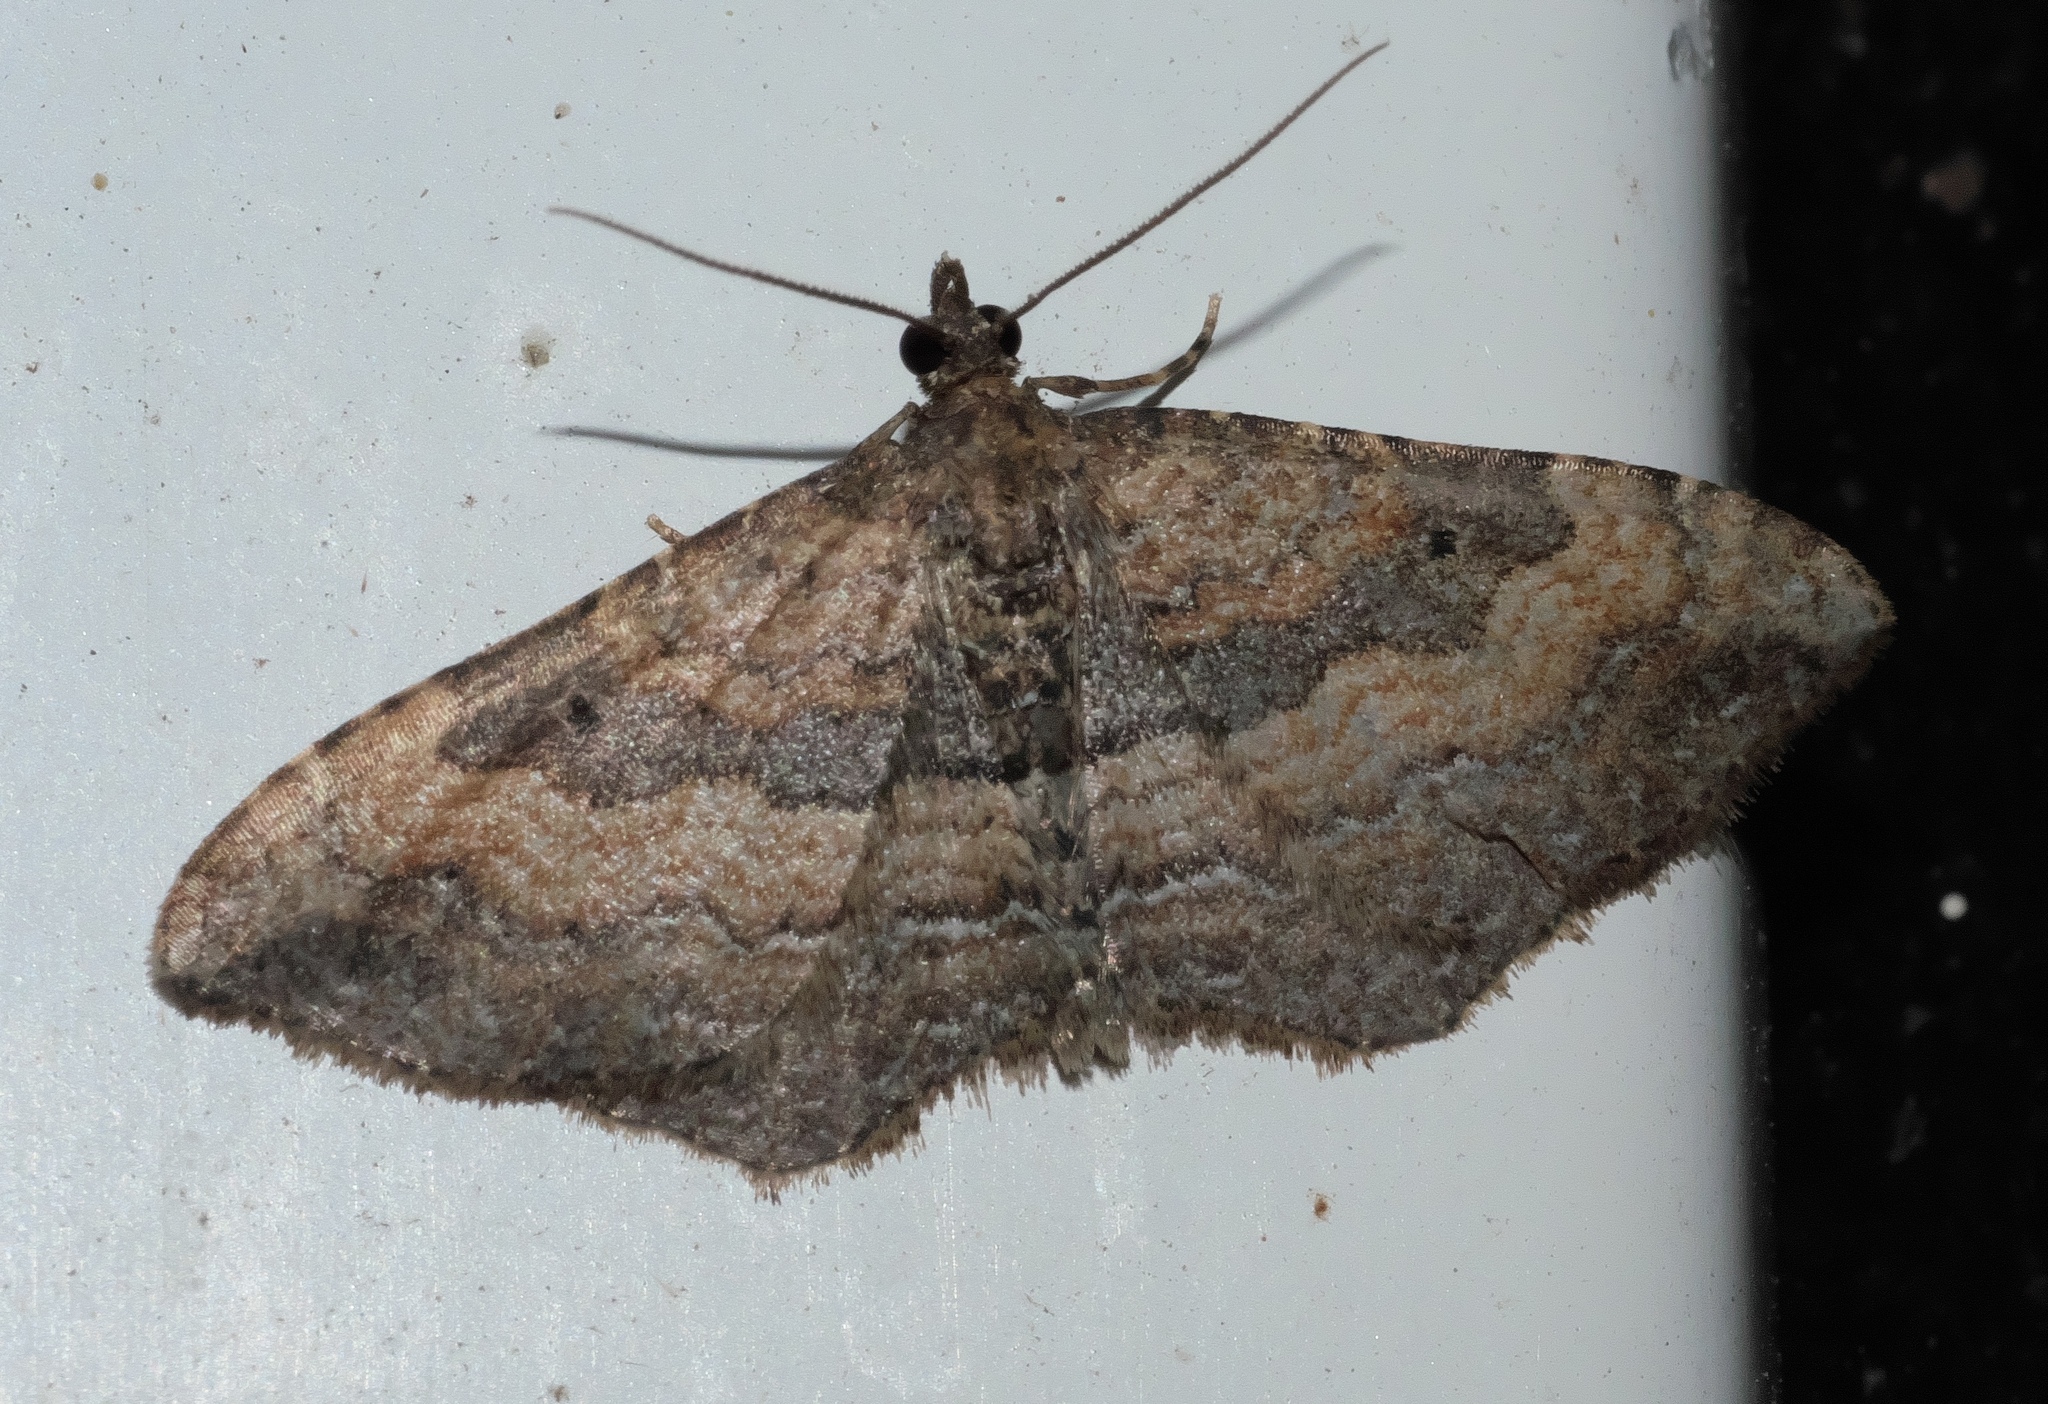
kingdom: Animalia
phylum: Arthropoda
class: Insecta
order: Lepidoptera
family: Geometridae
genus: Orthonama
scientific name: Orthonama obstipata
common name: The gem
